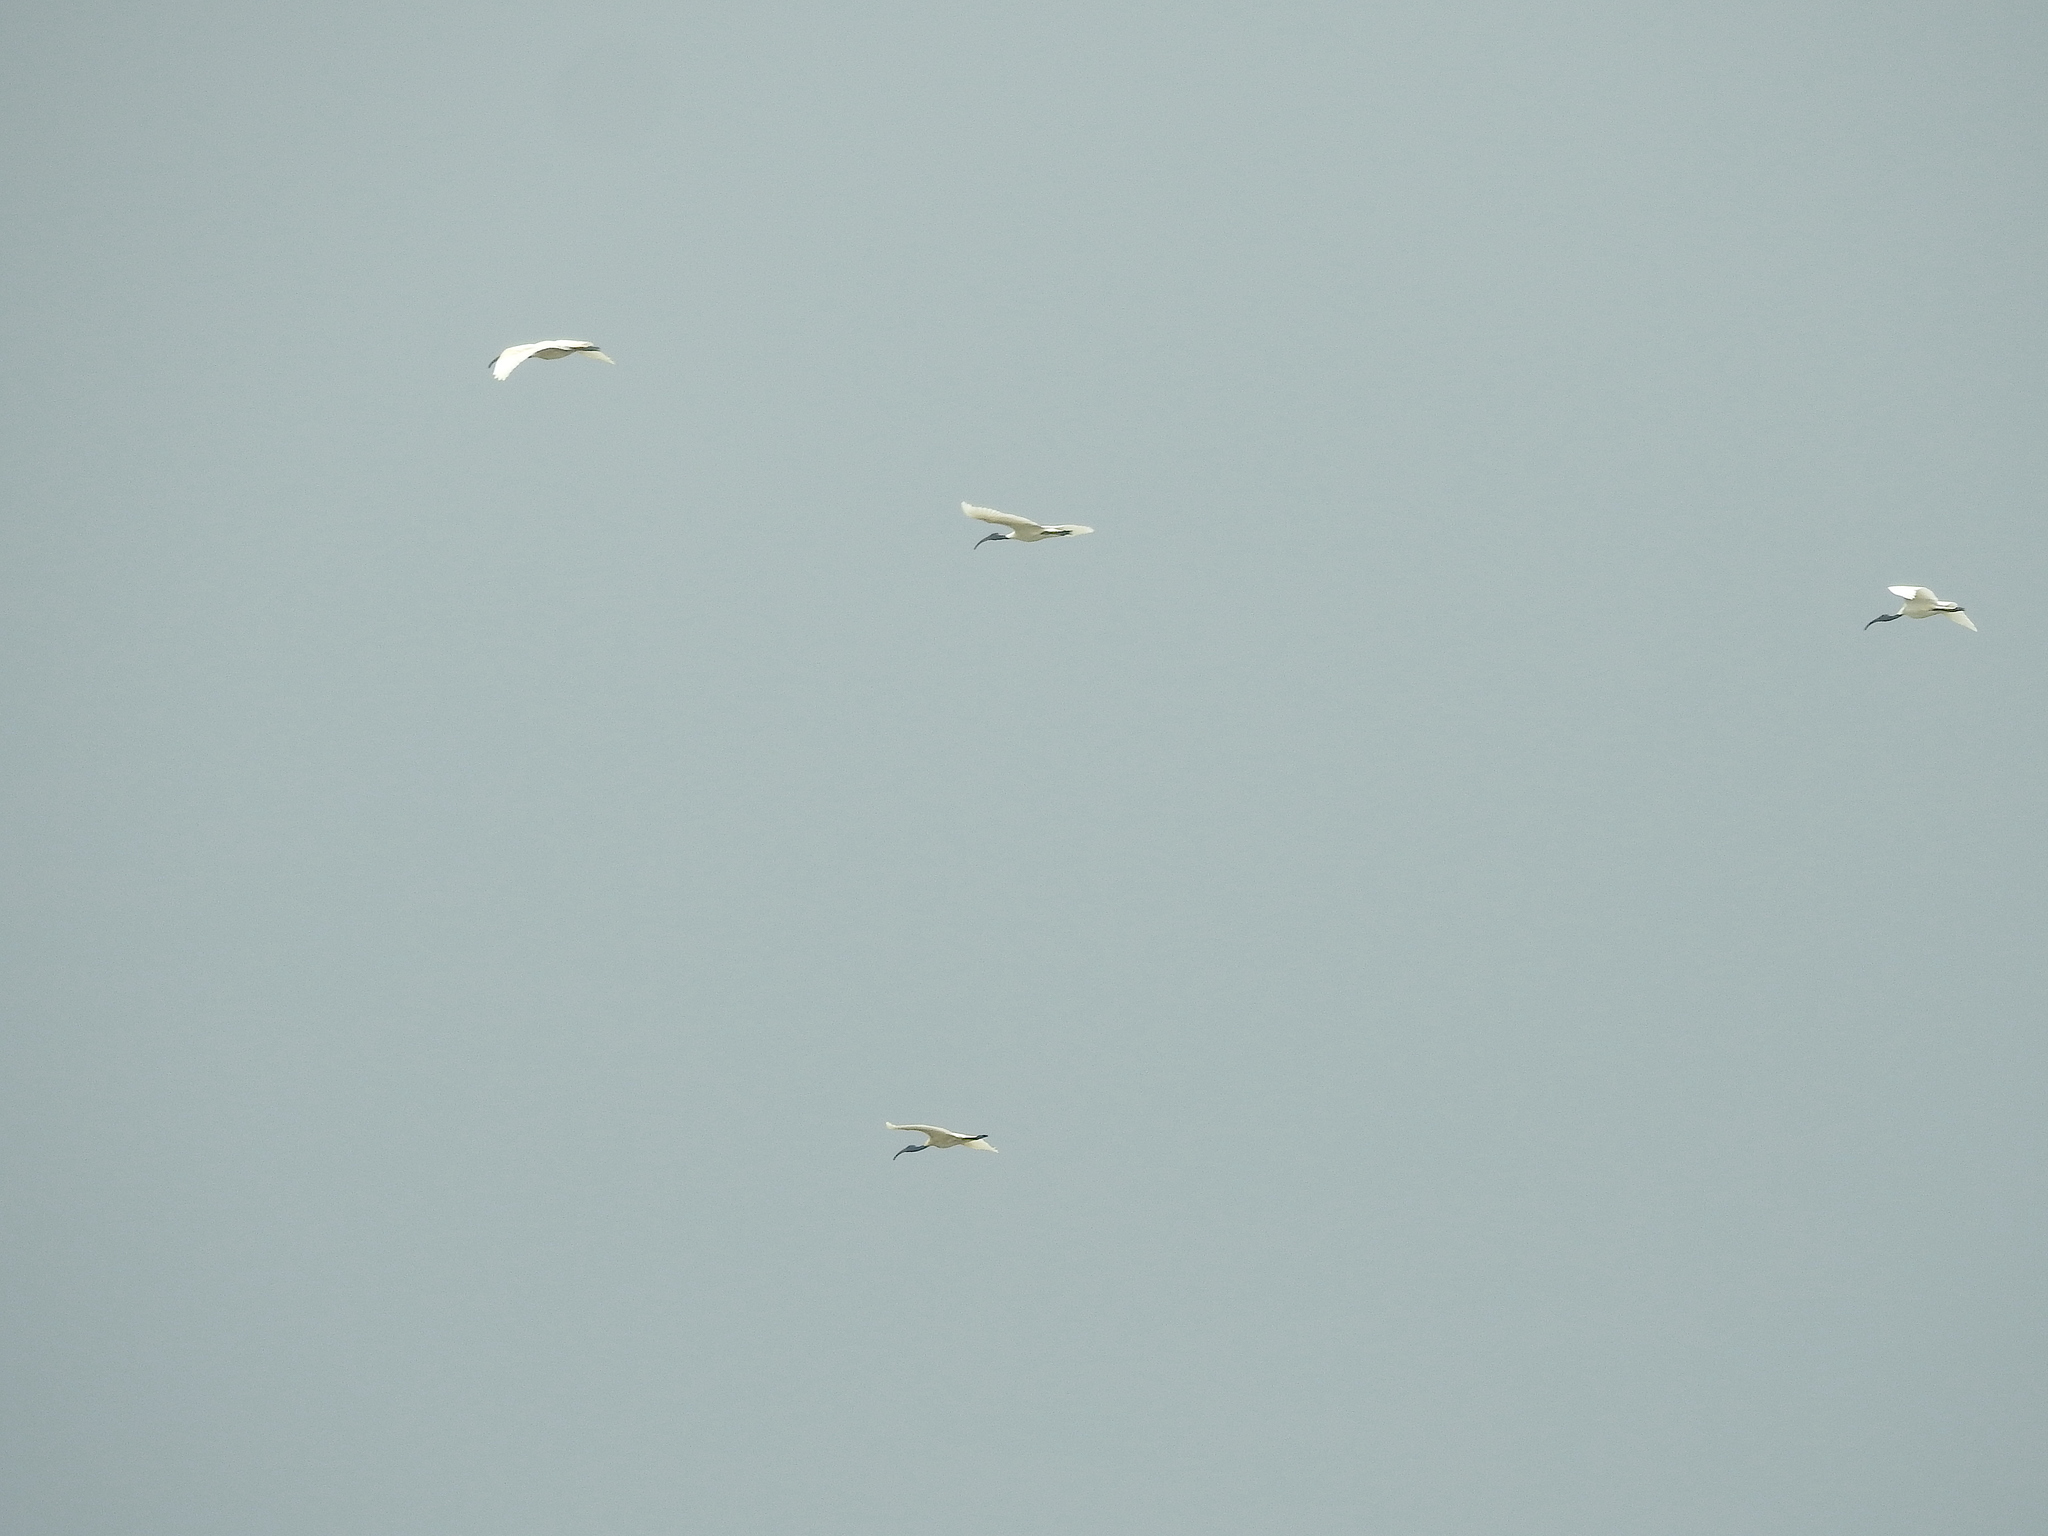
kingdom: Animalia
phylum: Chordata
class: Aves
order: Pelecaniformes
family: Threskiornithidae
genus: Threskiornis
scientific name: Threskiornis melanocephalus
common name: Black-headed ibis
